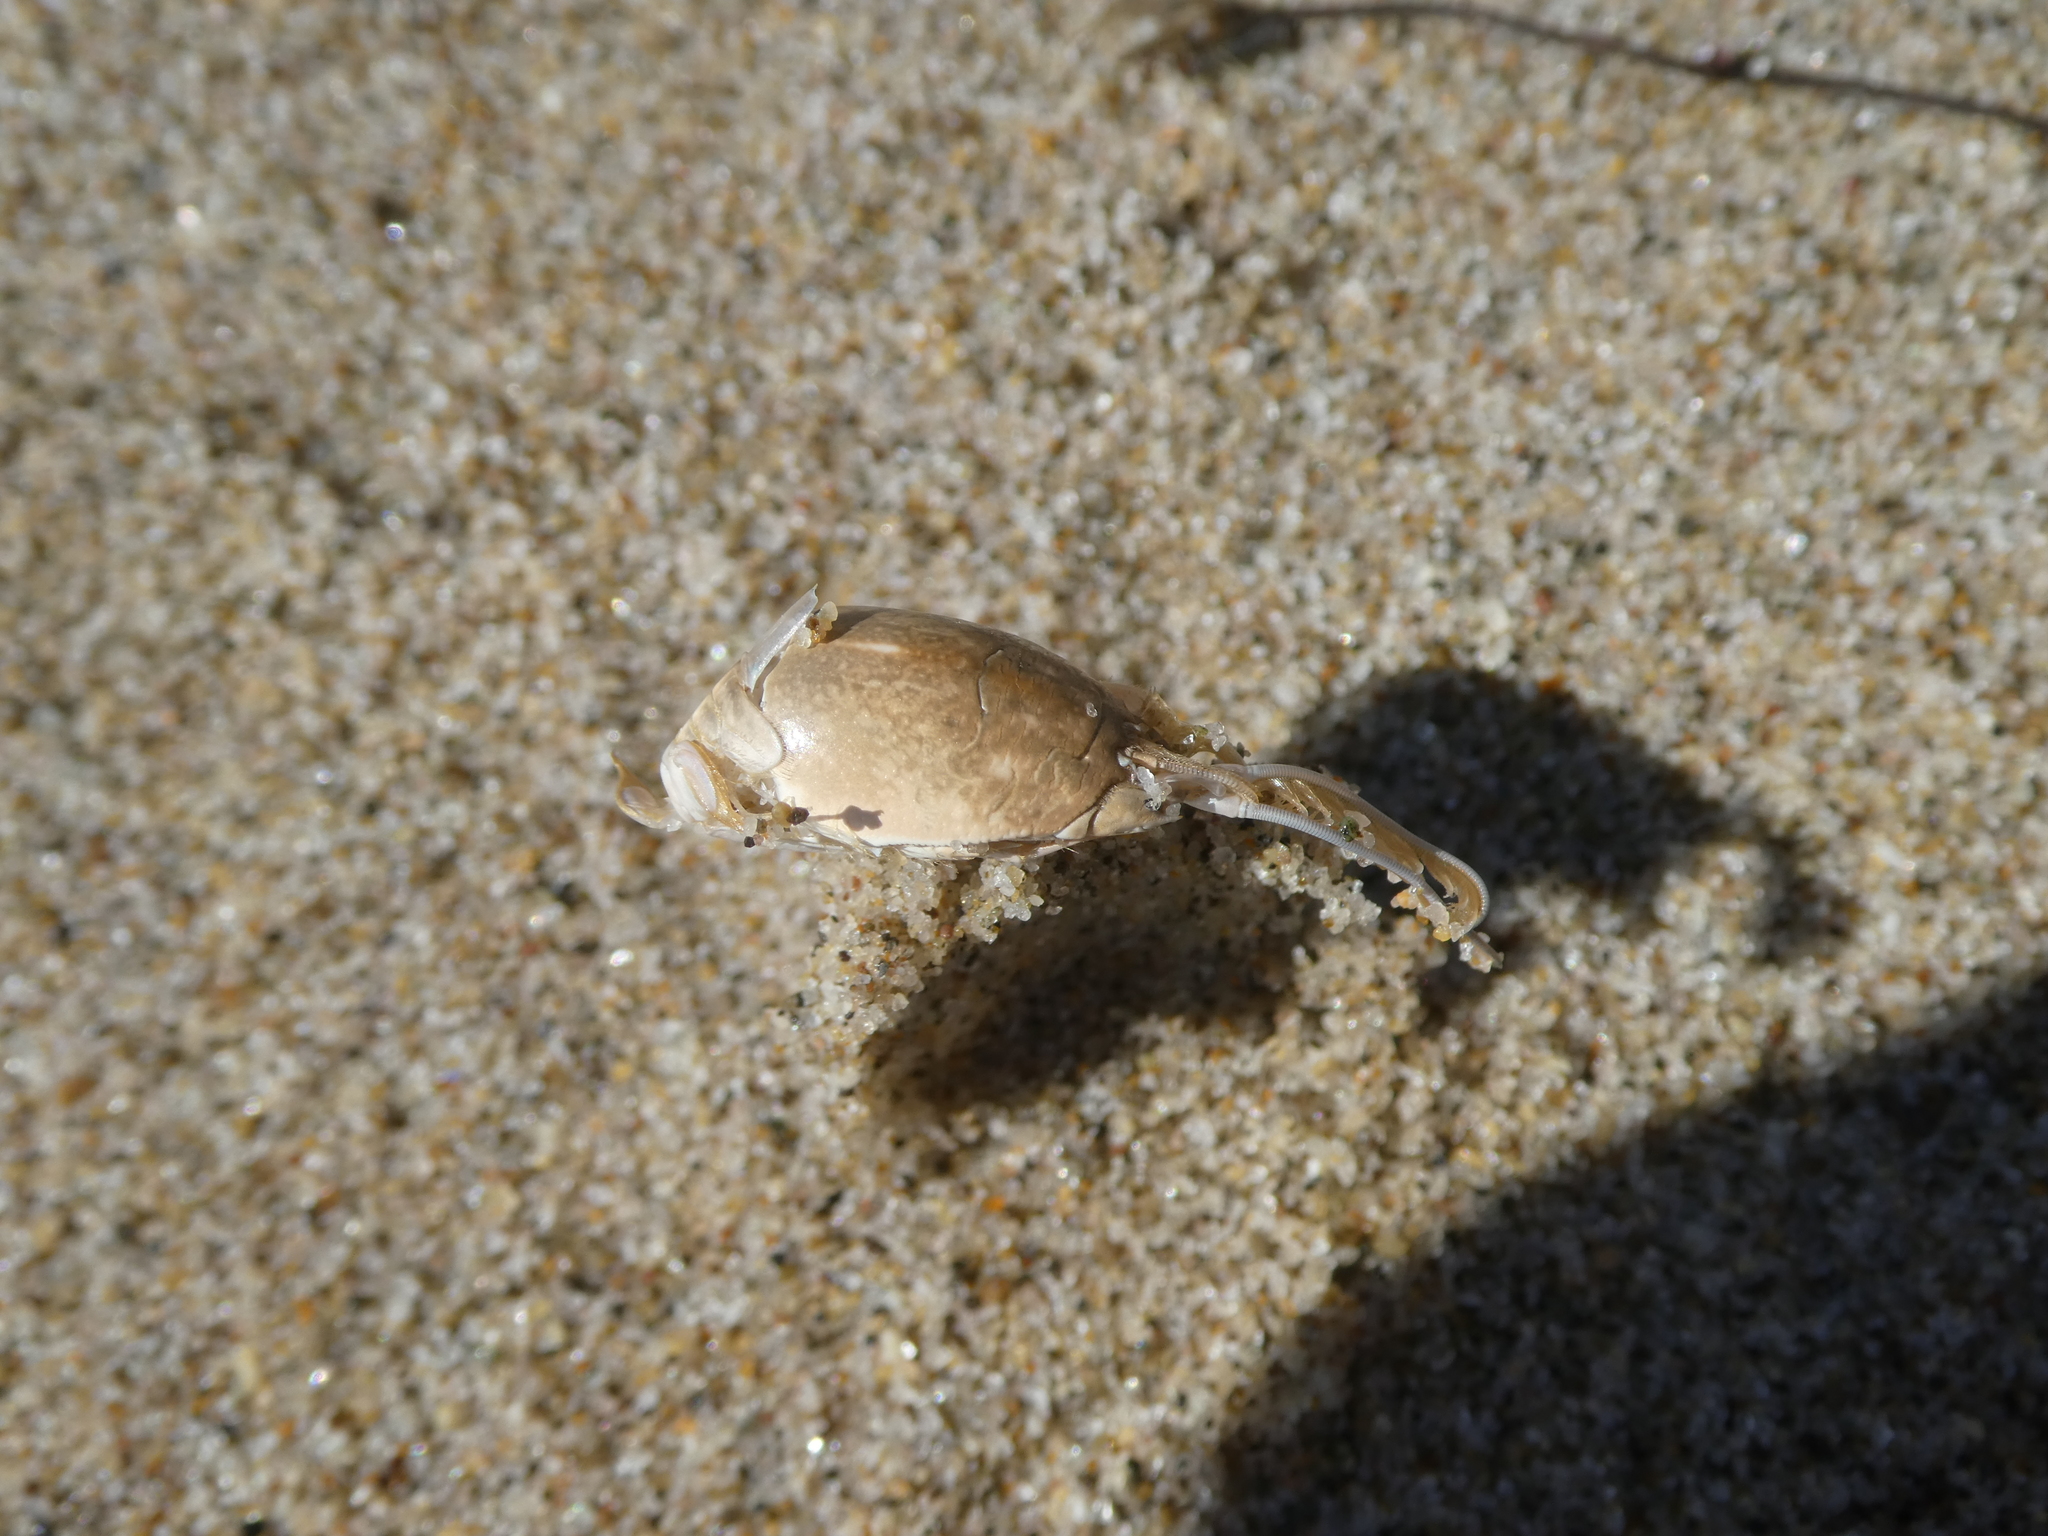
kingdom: Animalia
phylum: Arthropoda
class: Malacostraca
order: Decapoda
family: Hippidae
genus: Emerita
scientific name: Emerita analoga
